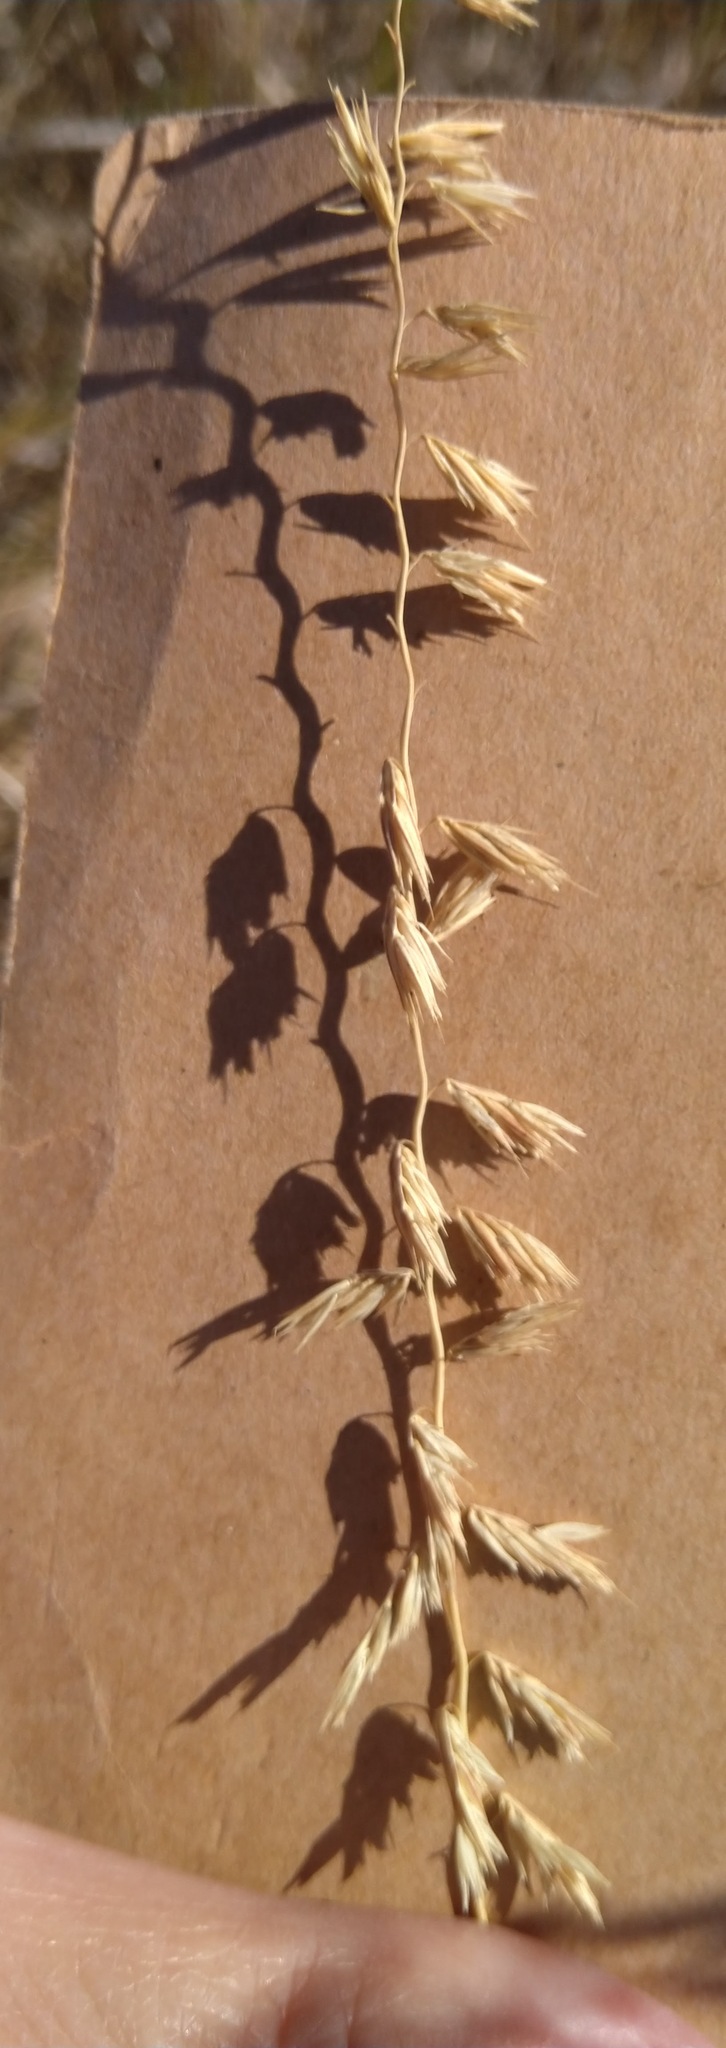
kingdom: Plantae
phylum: Tracheophyta
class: Liliopsida
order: Poales
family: Poaceae
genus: Bouteloua
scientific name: Bouteloua curtipendula
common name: Side-oats grama
